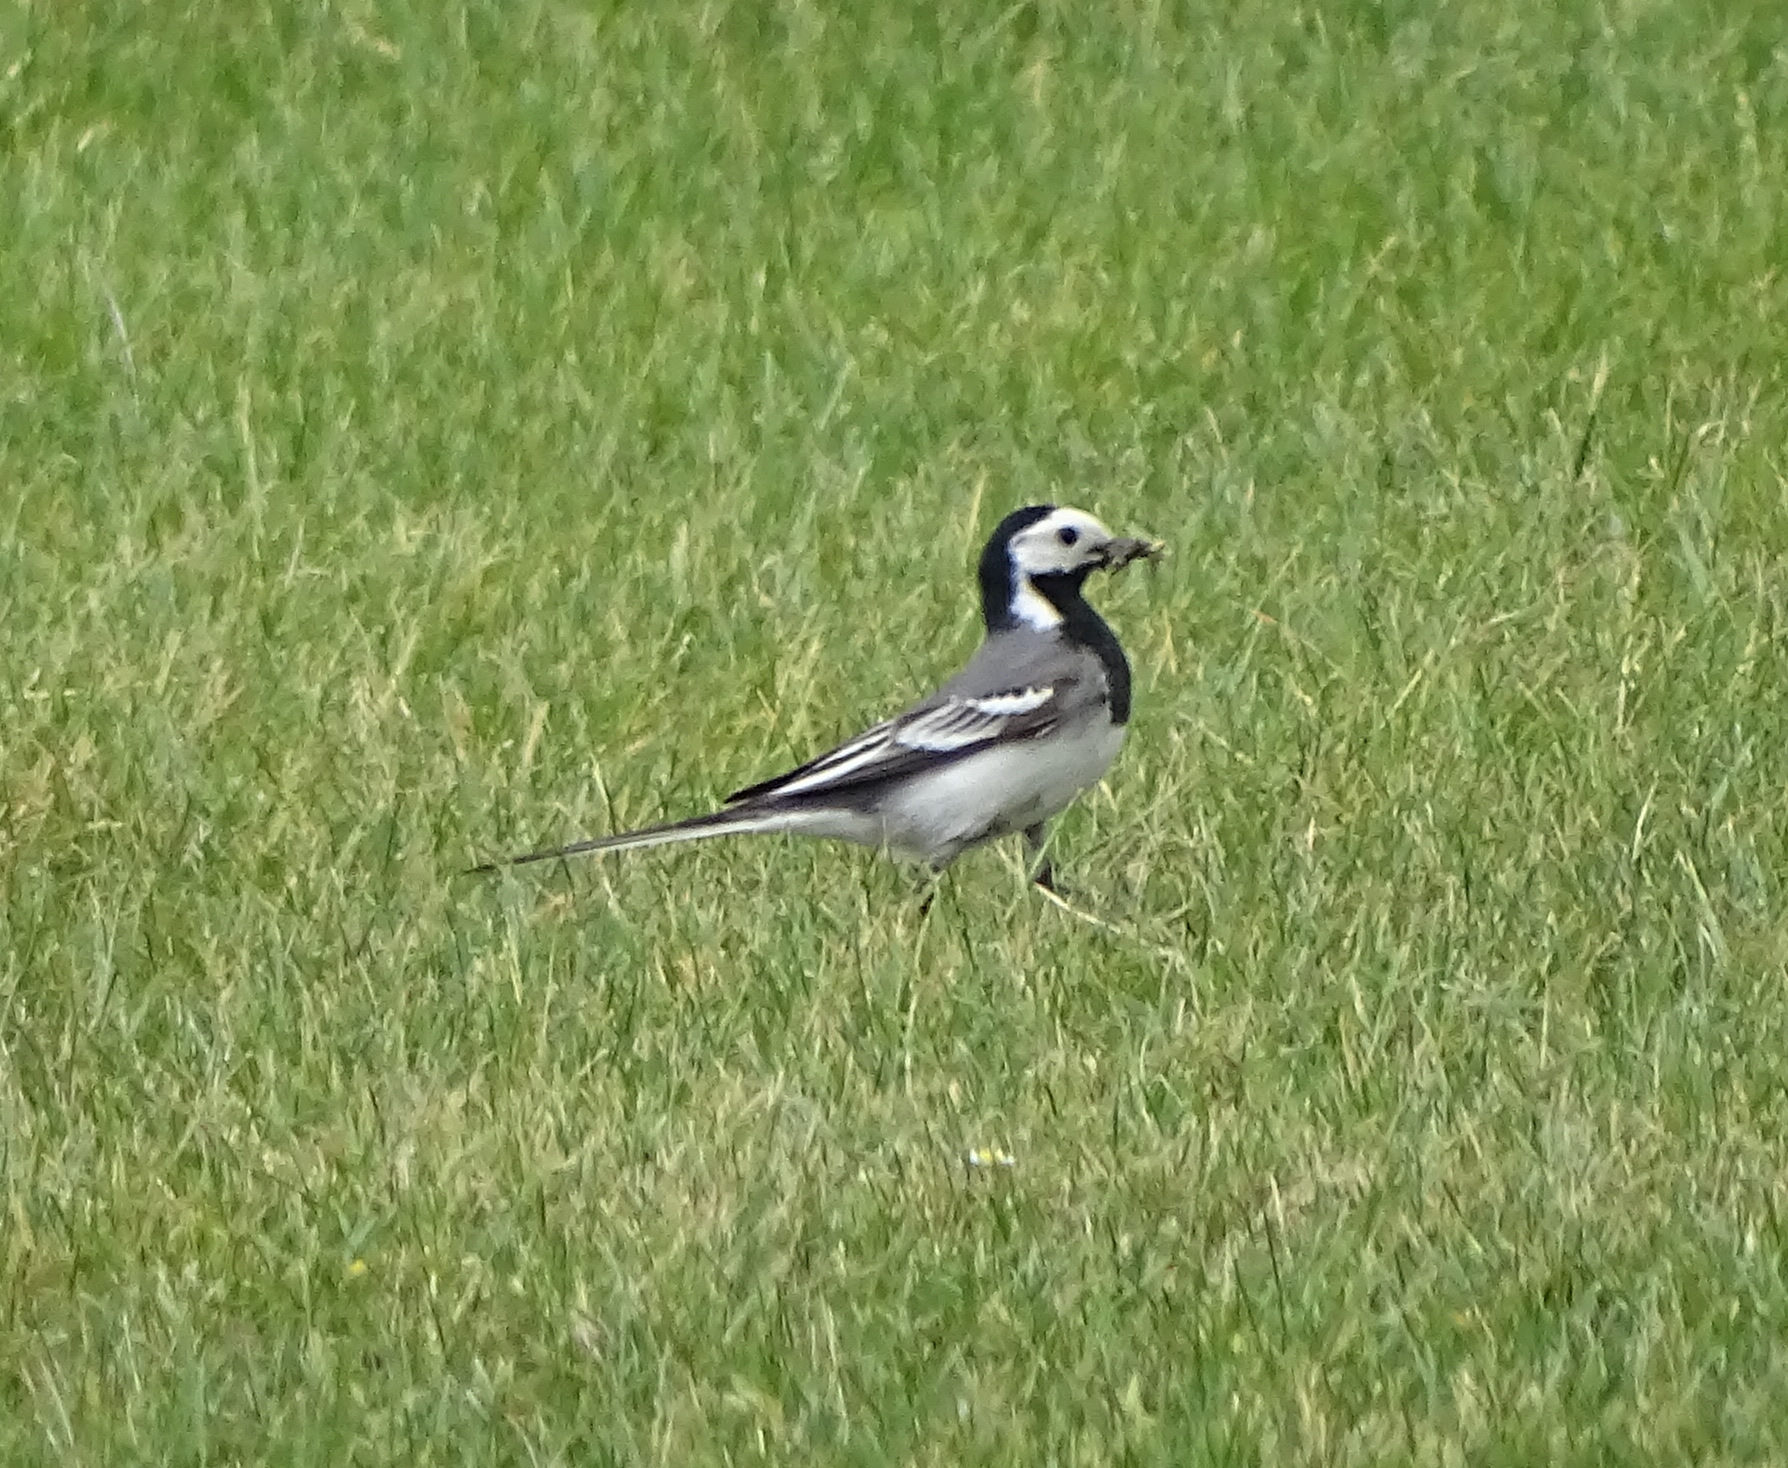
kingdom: Animalia
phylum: Chordata
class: Aves
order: Passeriformes
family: Motacillidae
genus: Motacilla
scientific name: Motacilla alba
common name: White wagtail
